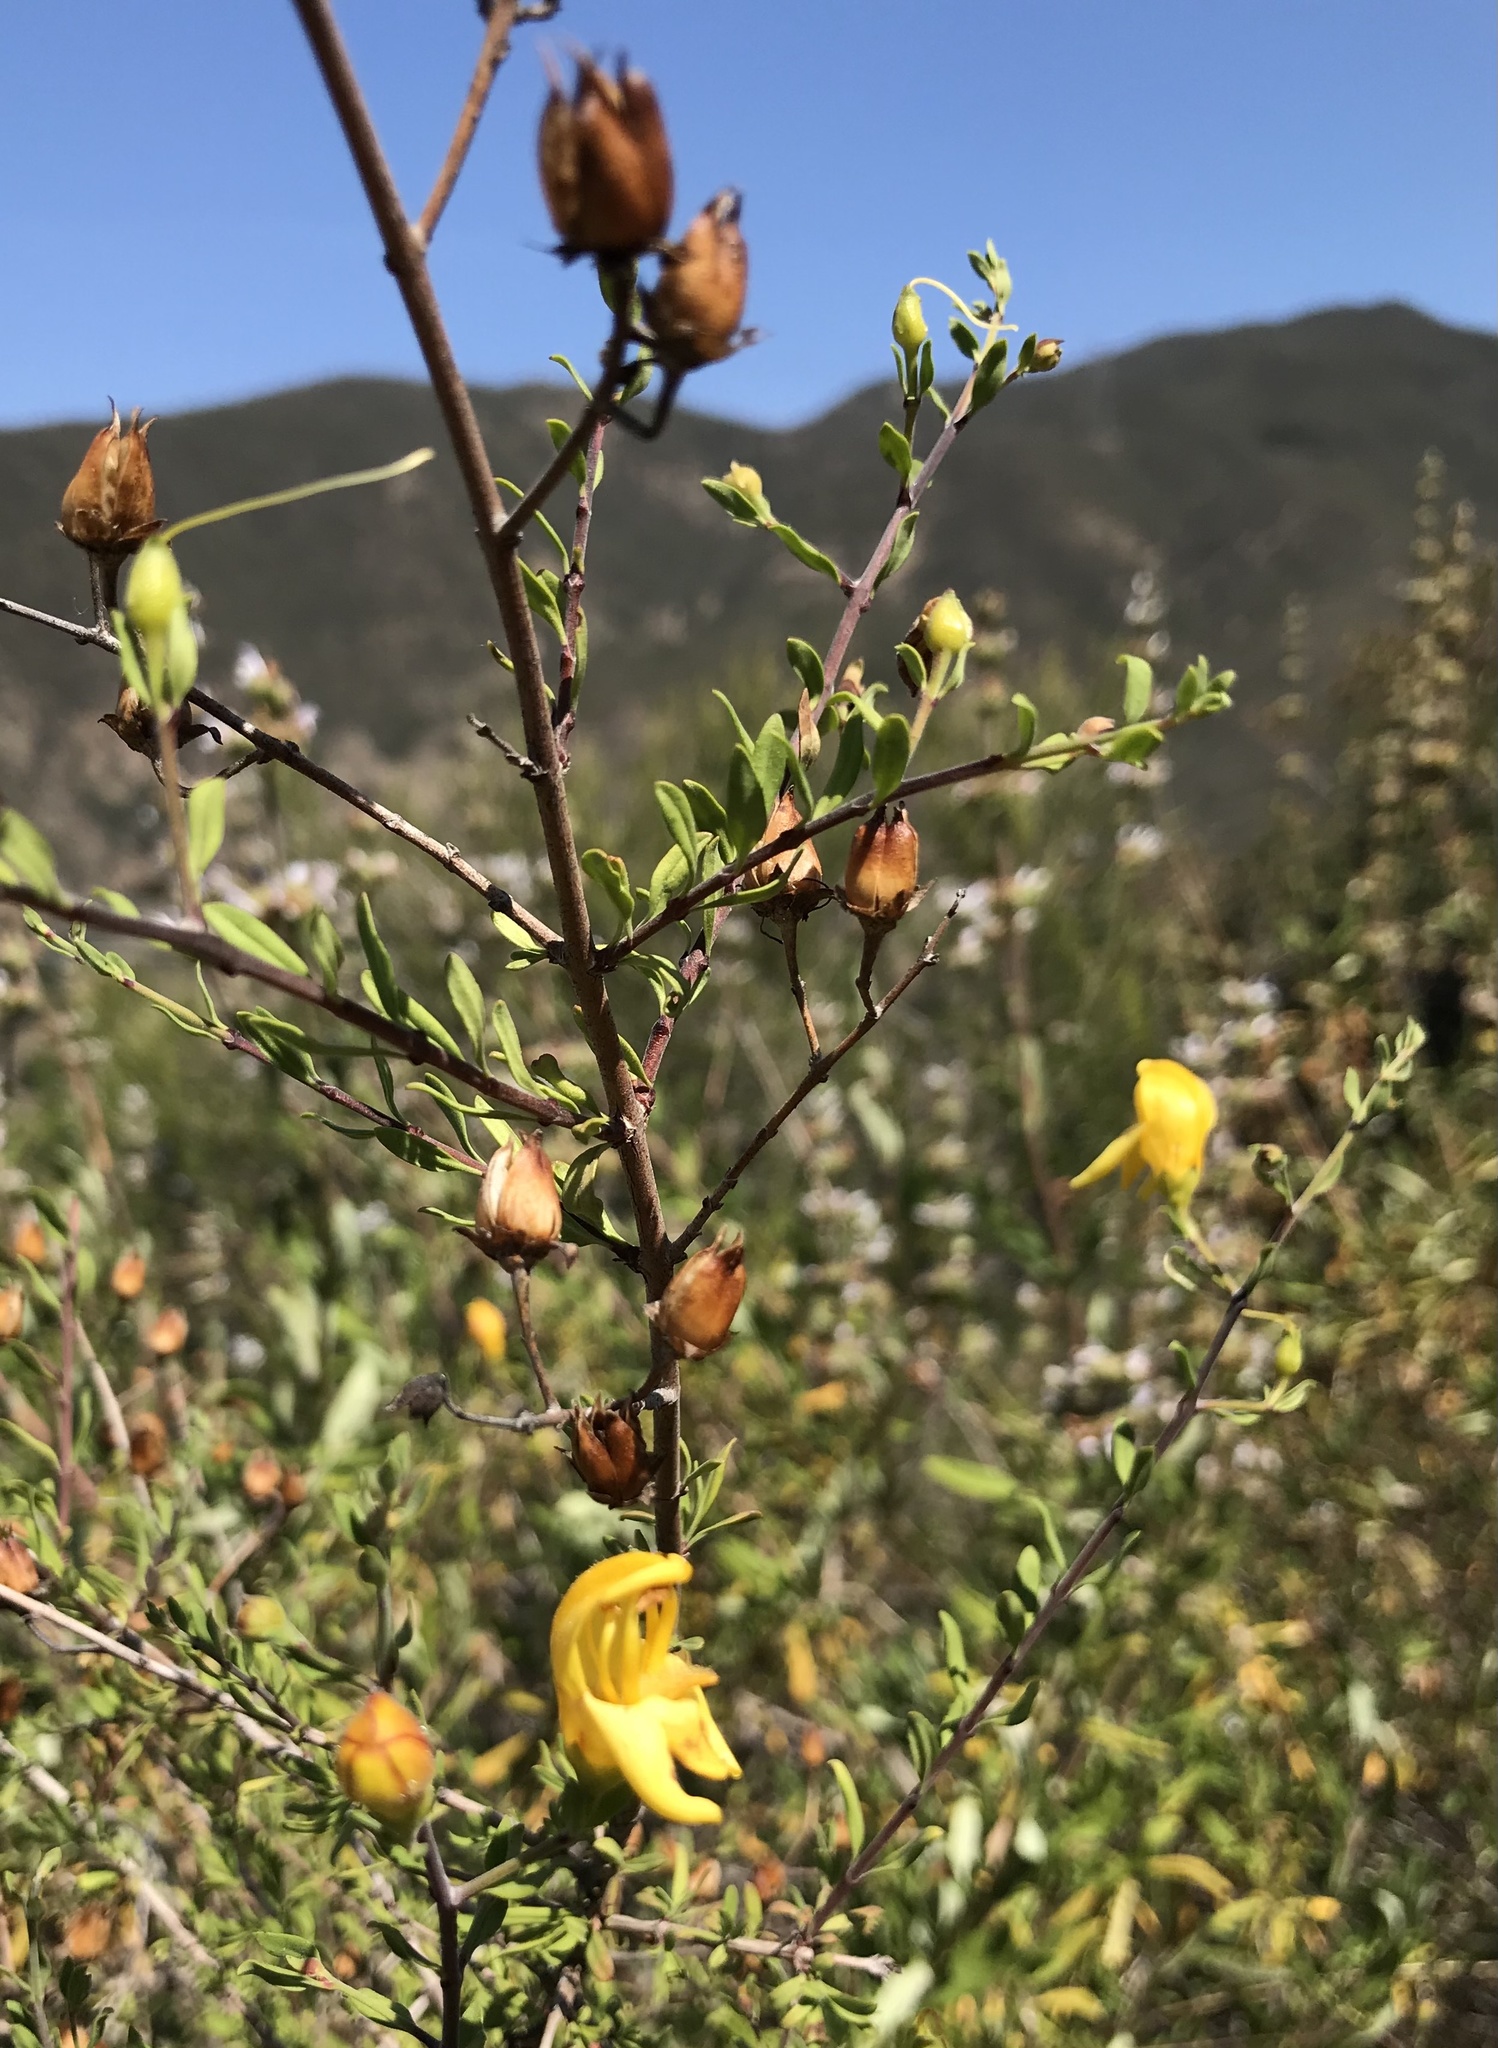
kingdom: Plantae
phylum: Tracheophyta
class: Magnoliopsida
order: Lamiales
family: Plantaginaceae
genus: Keckiella
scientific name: Keckiella antirrhinoides
